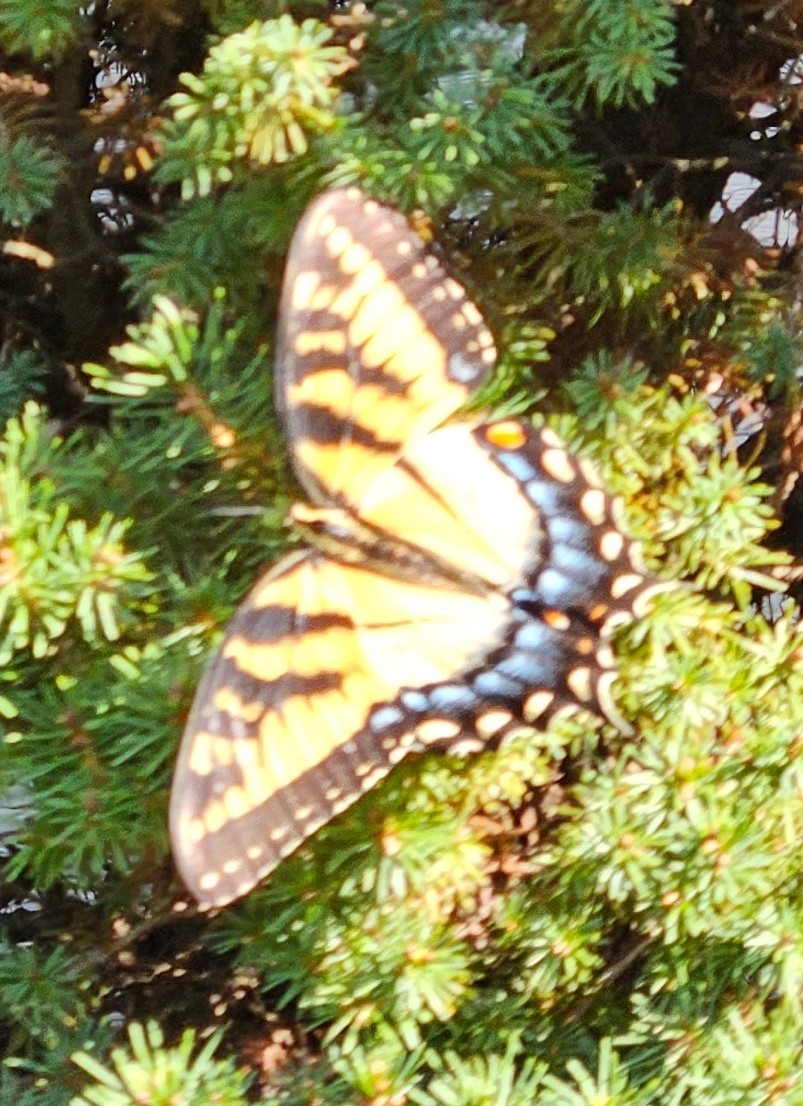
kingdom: Animalia
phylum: Arthropoda
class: Insecta
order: Lepidoptera
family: Papilionidae
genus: Papilio
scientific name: Papilio glaucus
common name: Tiger swallowtail
